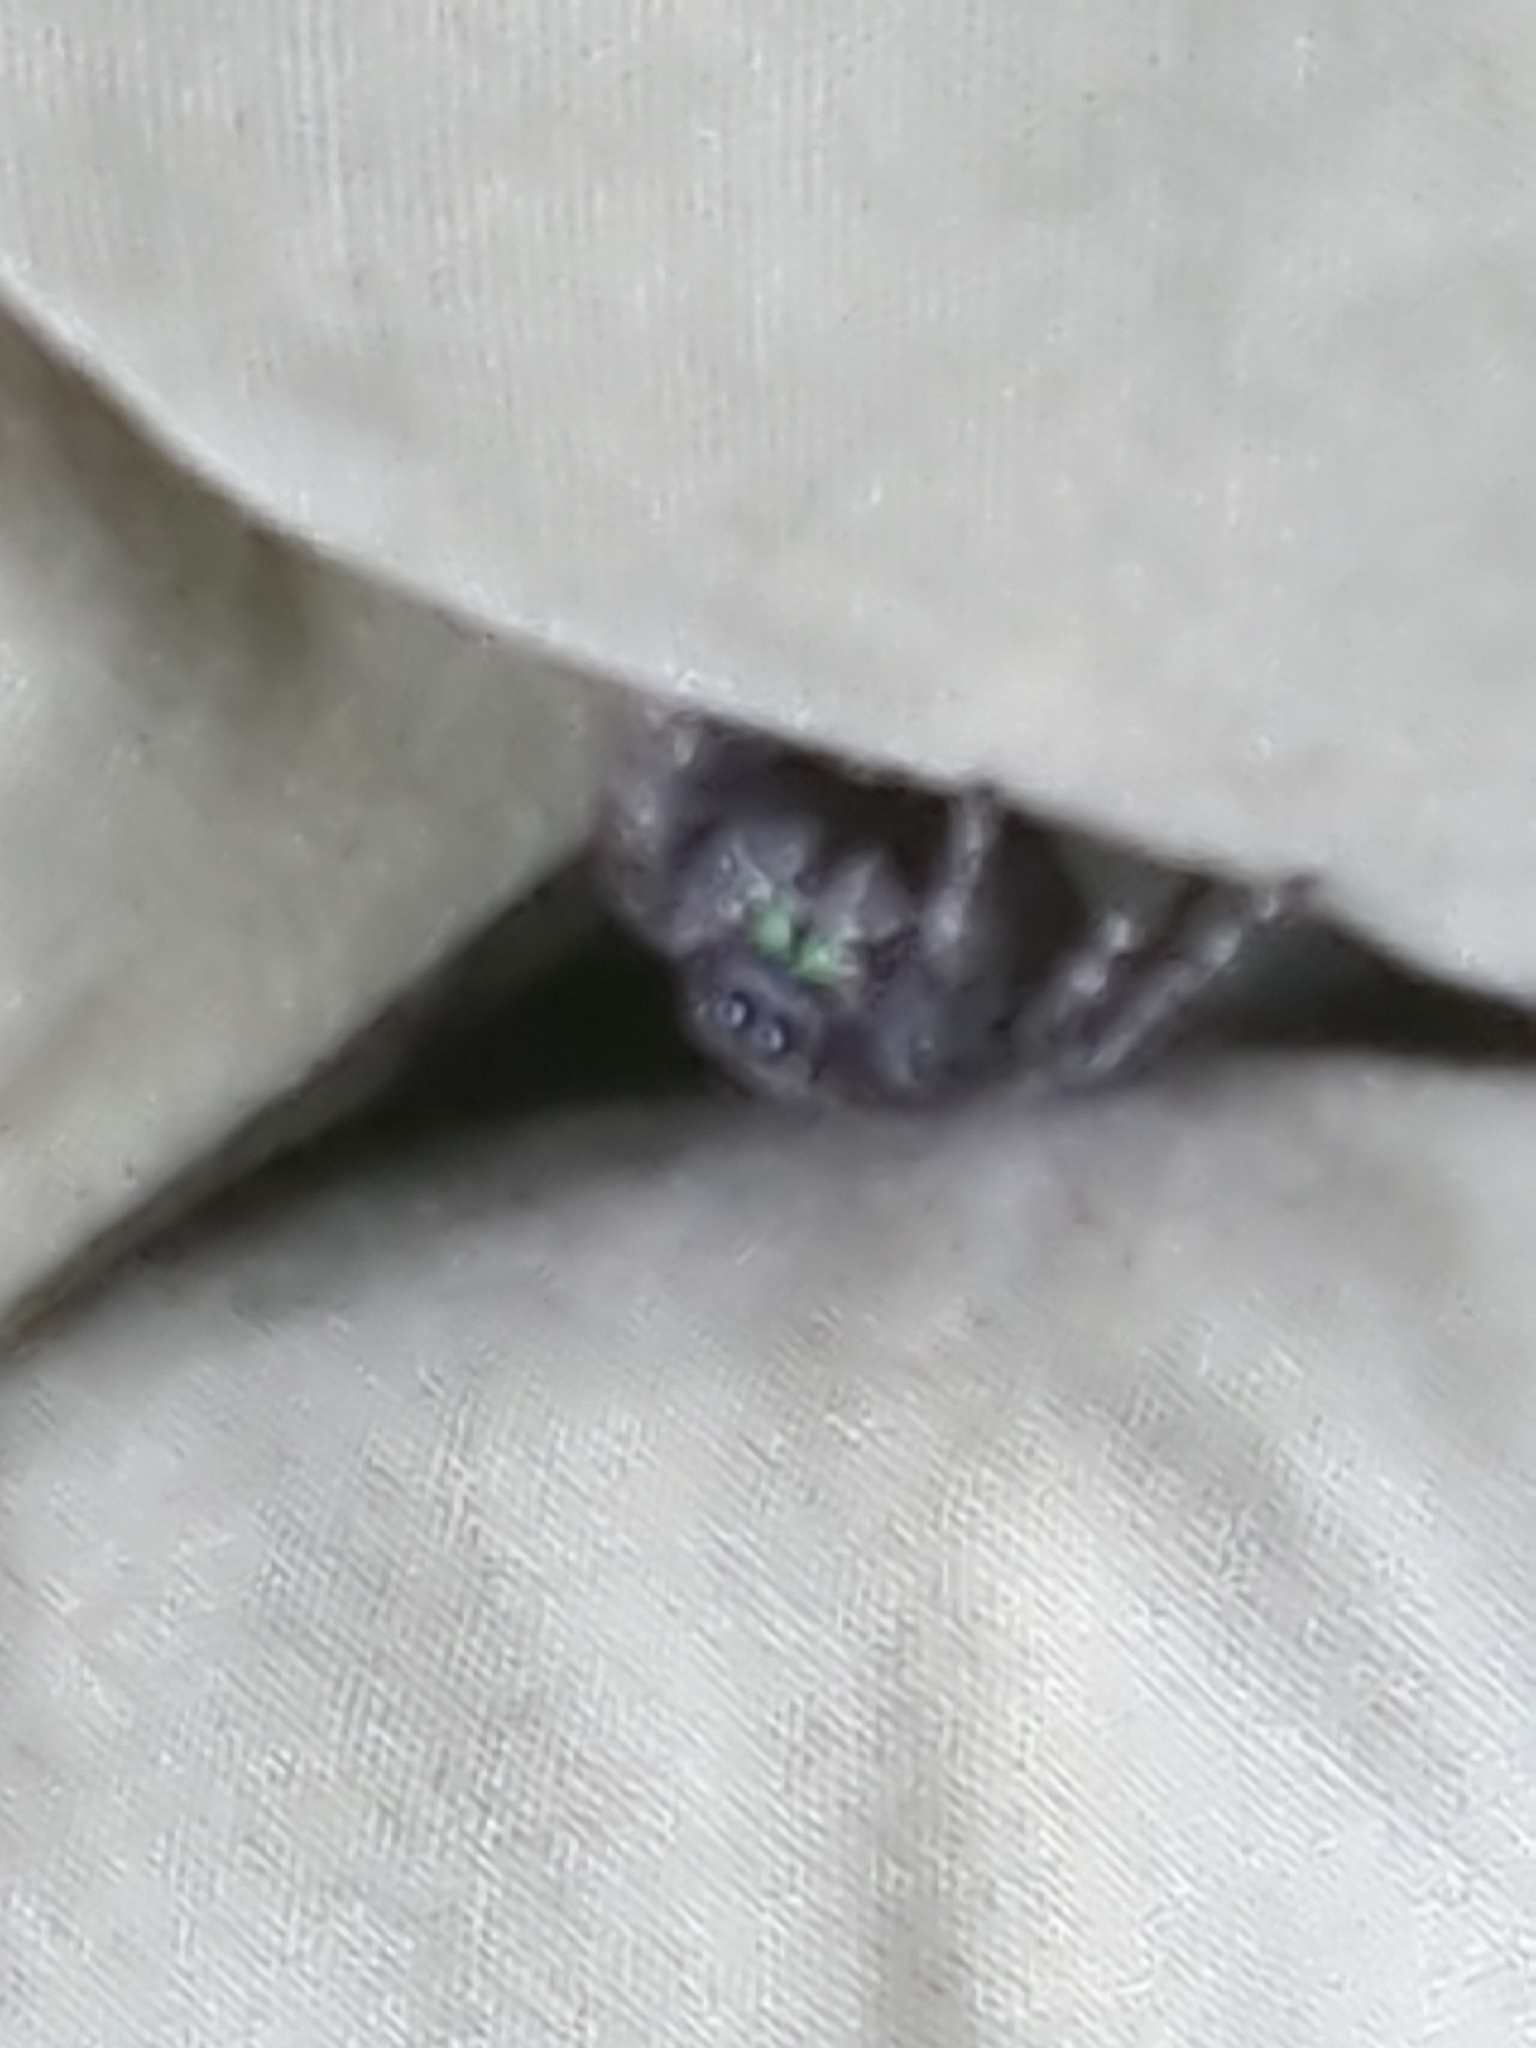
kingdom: Animalia
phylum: Arthropoda
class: Arachnida
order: Araneae
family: Salticidae
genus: Phidippus
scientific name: Phidippus audax
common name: Bold jumper
